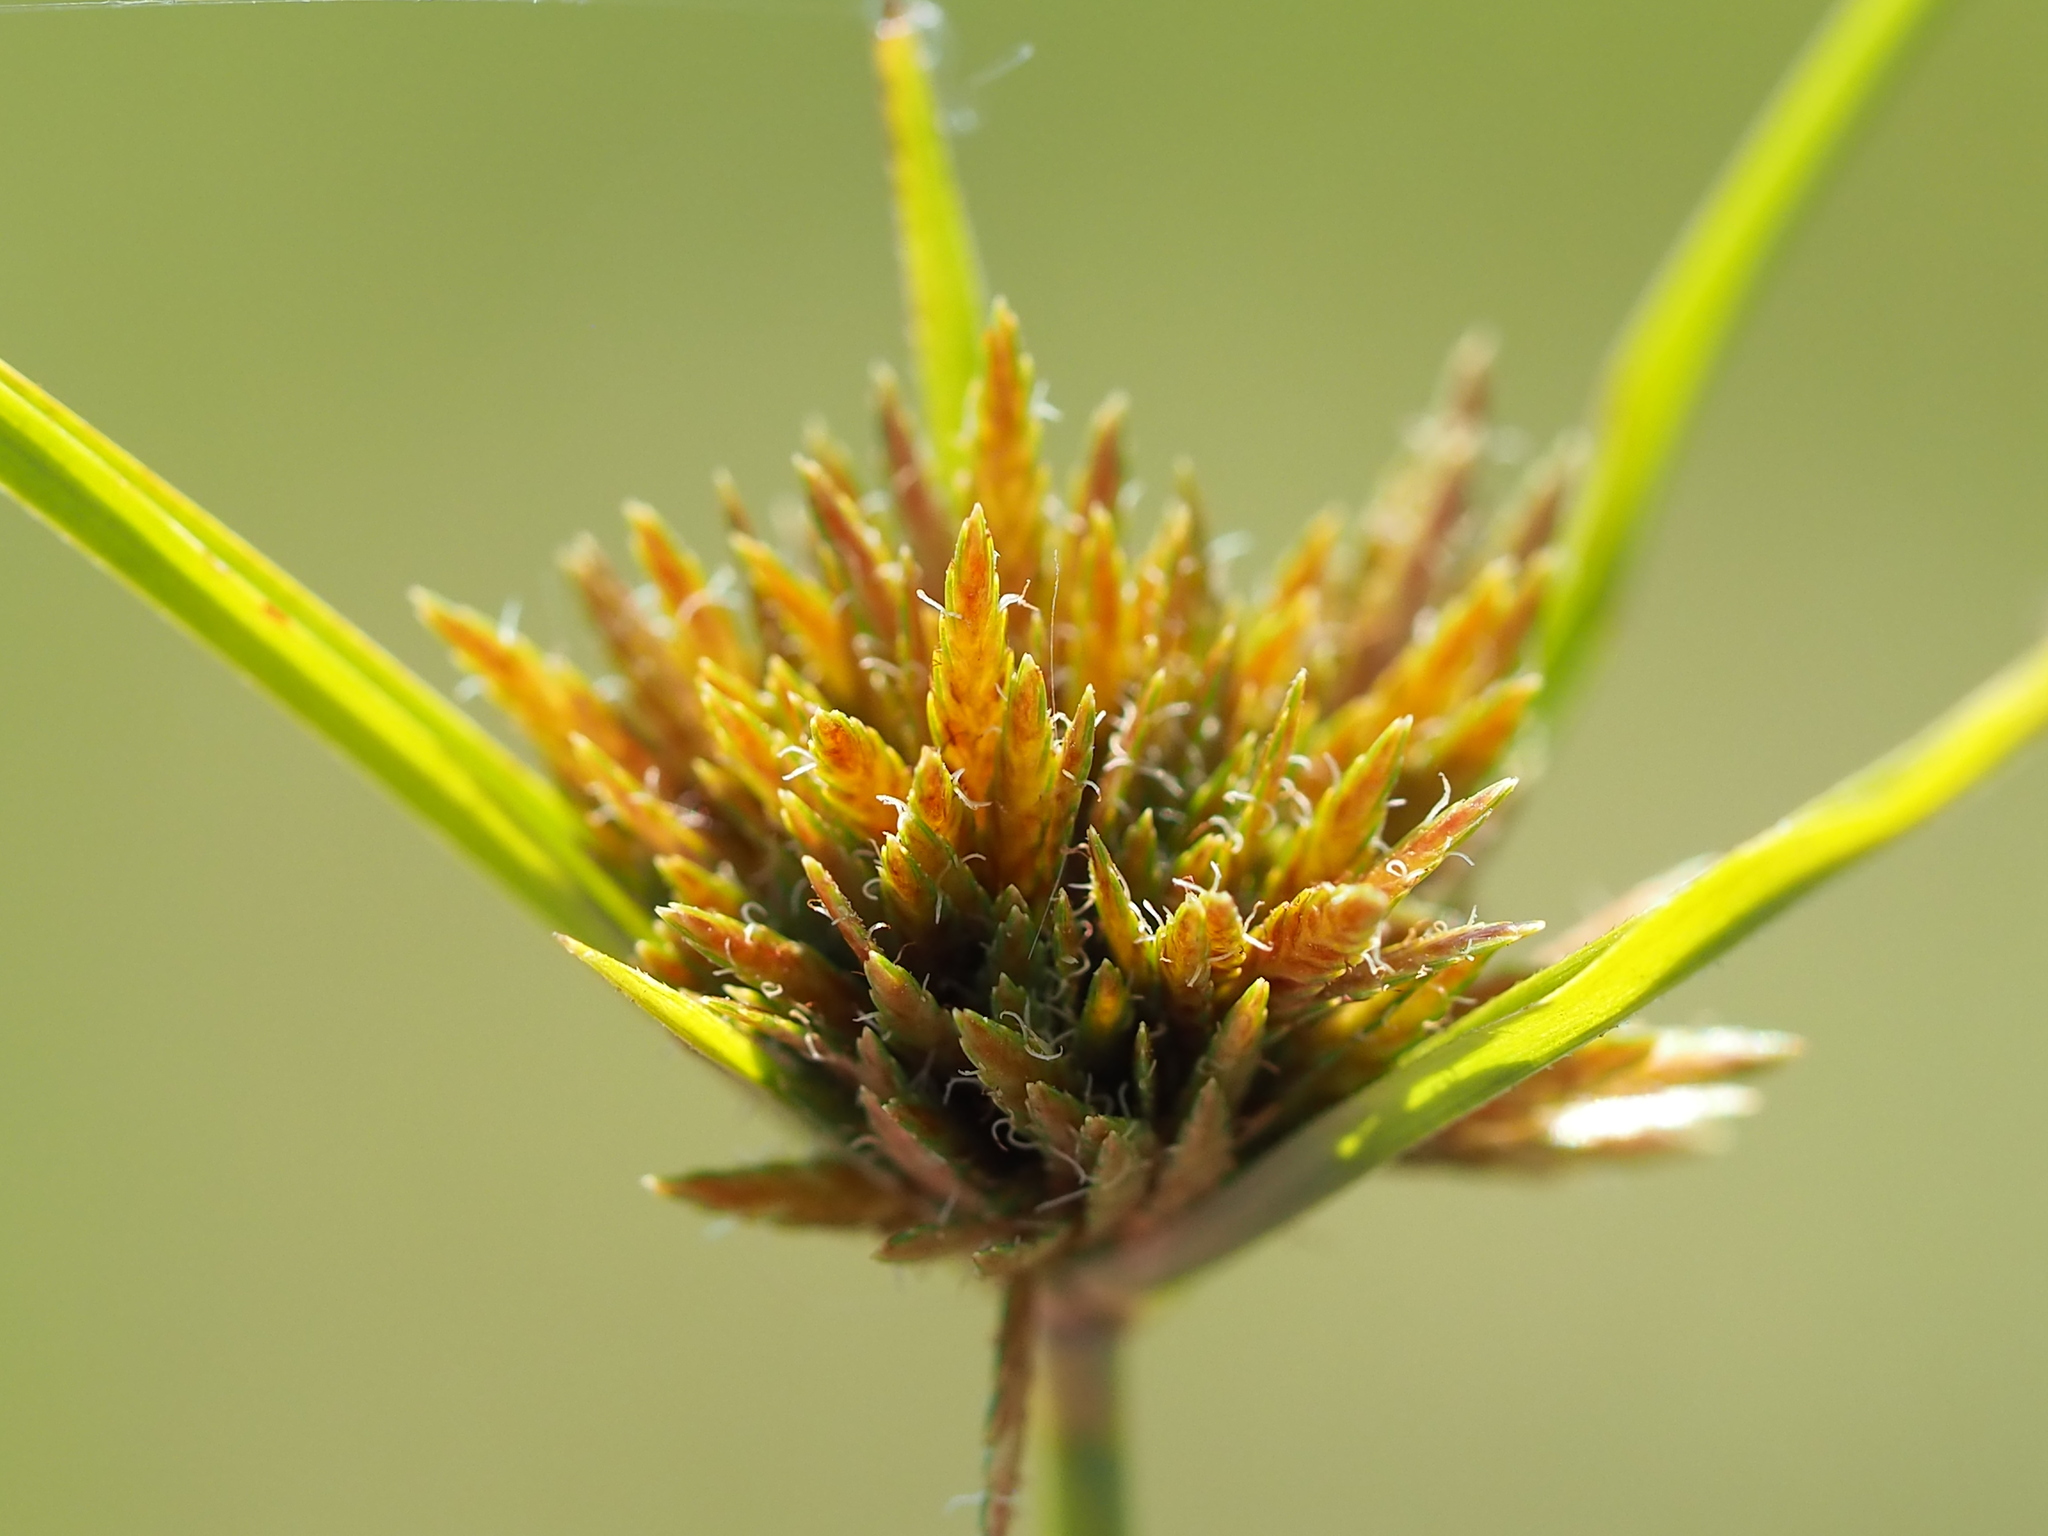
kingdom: Plantae
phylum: Tracheophyta
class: Liliopsida
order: Poales
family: Cyperaceae
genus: Cyperus
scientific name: Cyperus polystachyos
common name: Bunchy flat sedge
